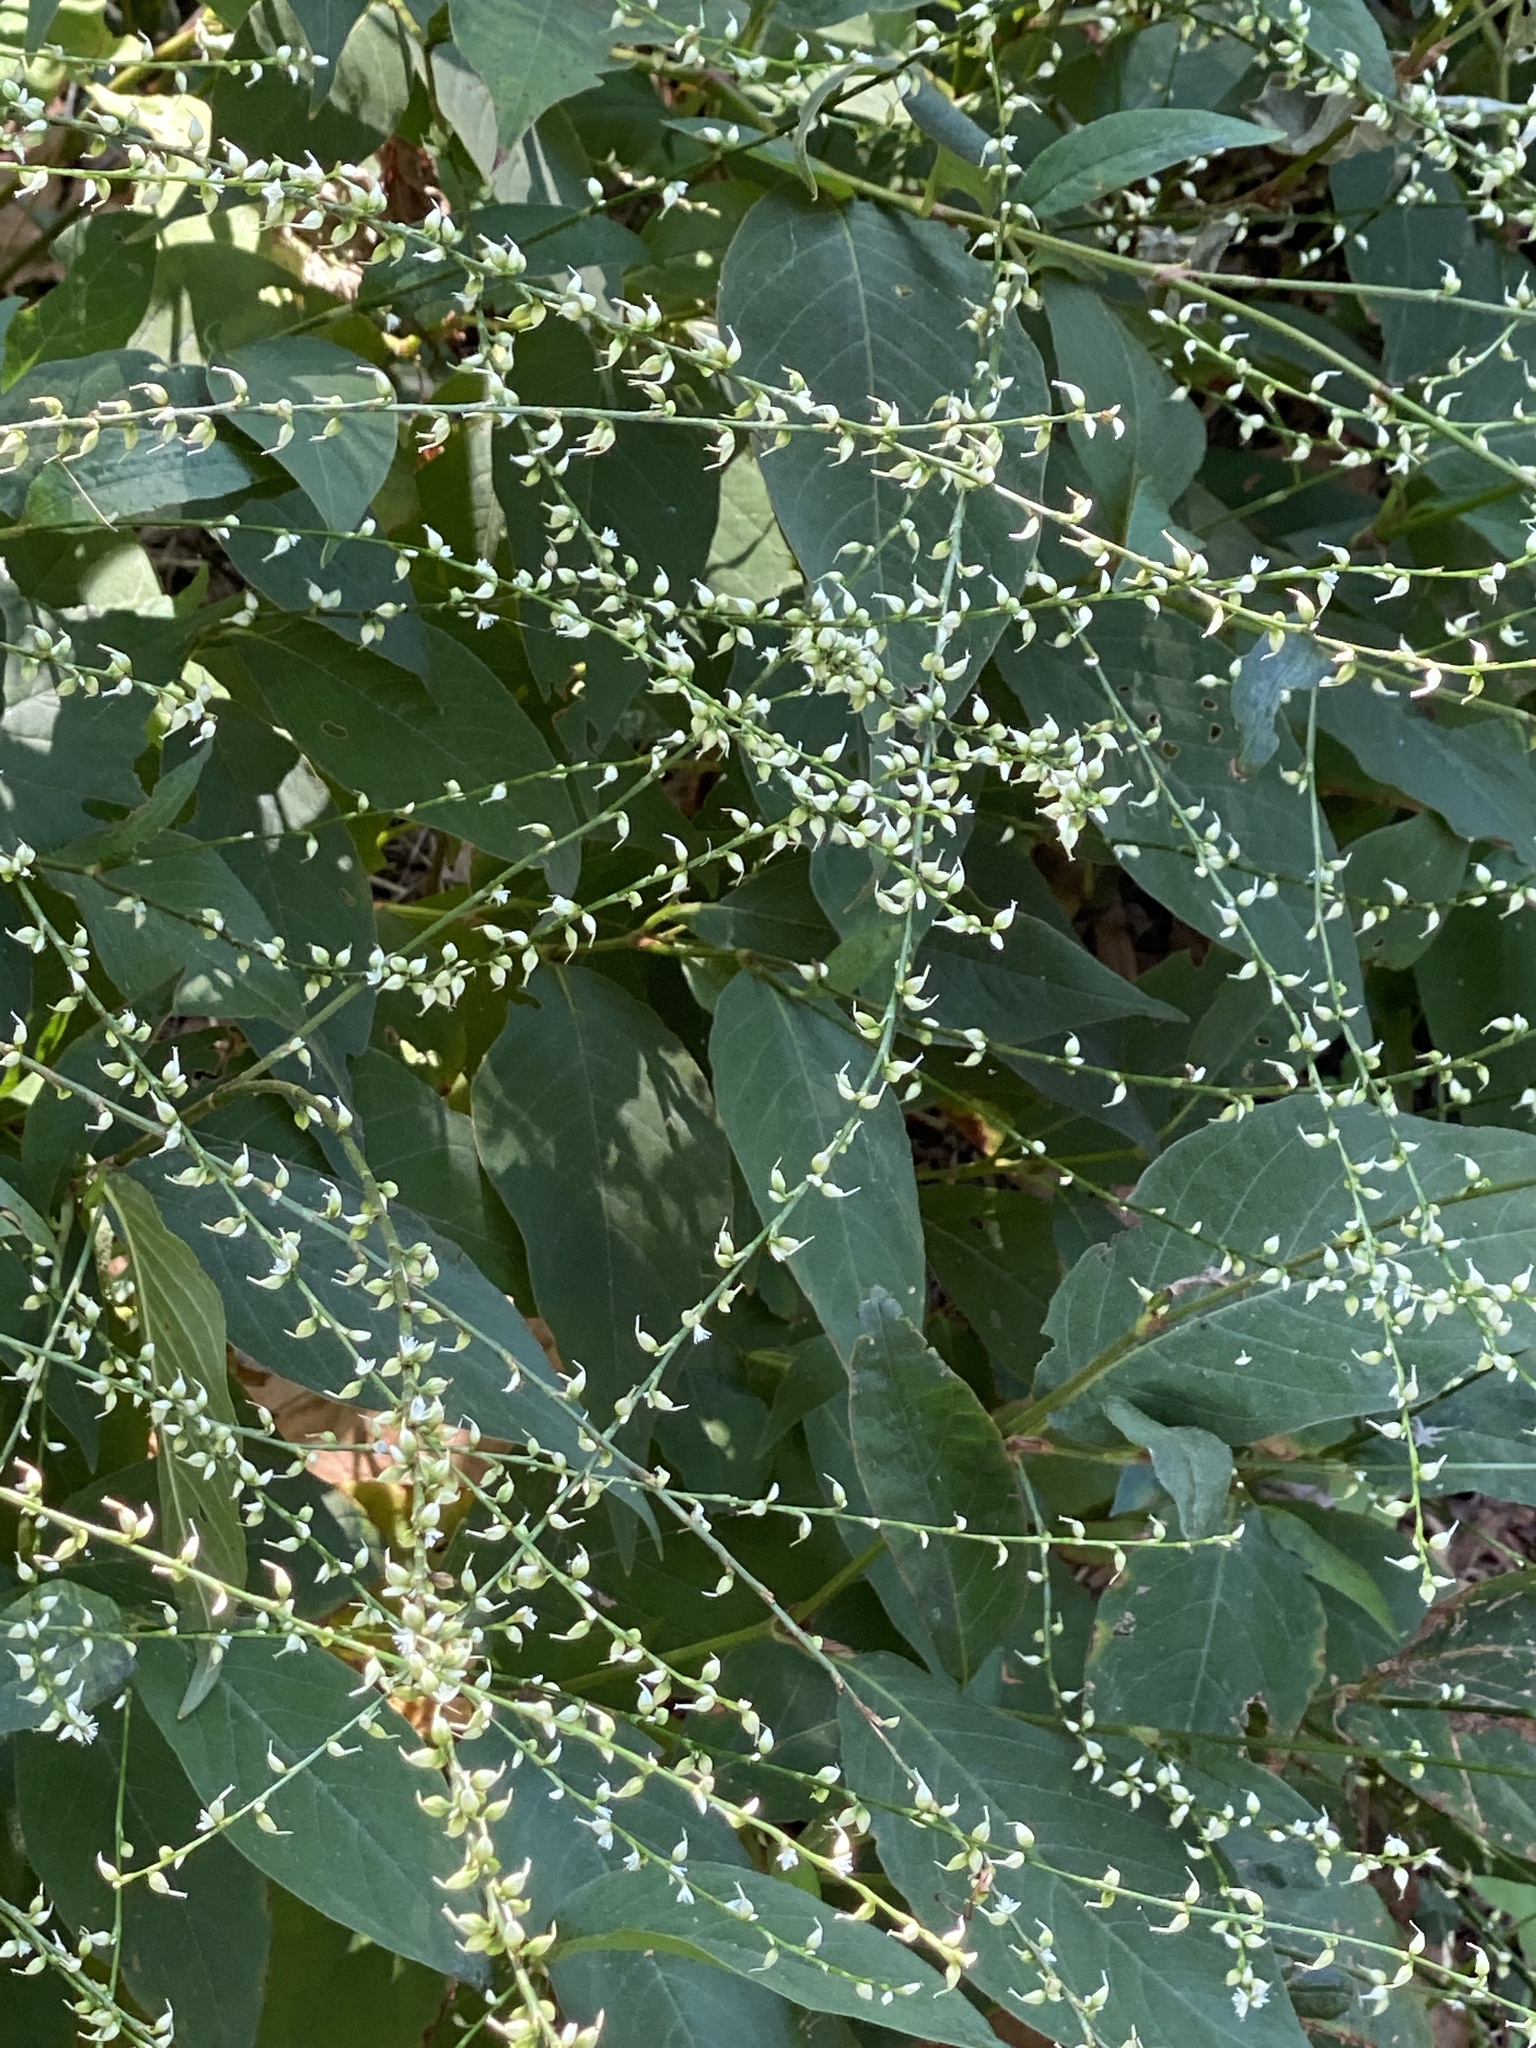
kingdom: Plantae
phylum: Tracheophyta
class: Magnoliopsida
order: Caryophyllales
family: Polygonaceae
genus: Persicaria
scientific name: Persicaria virginiana
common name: Jumpseed
